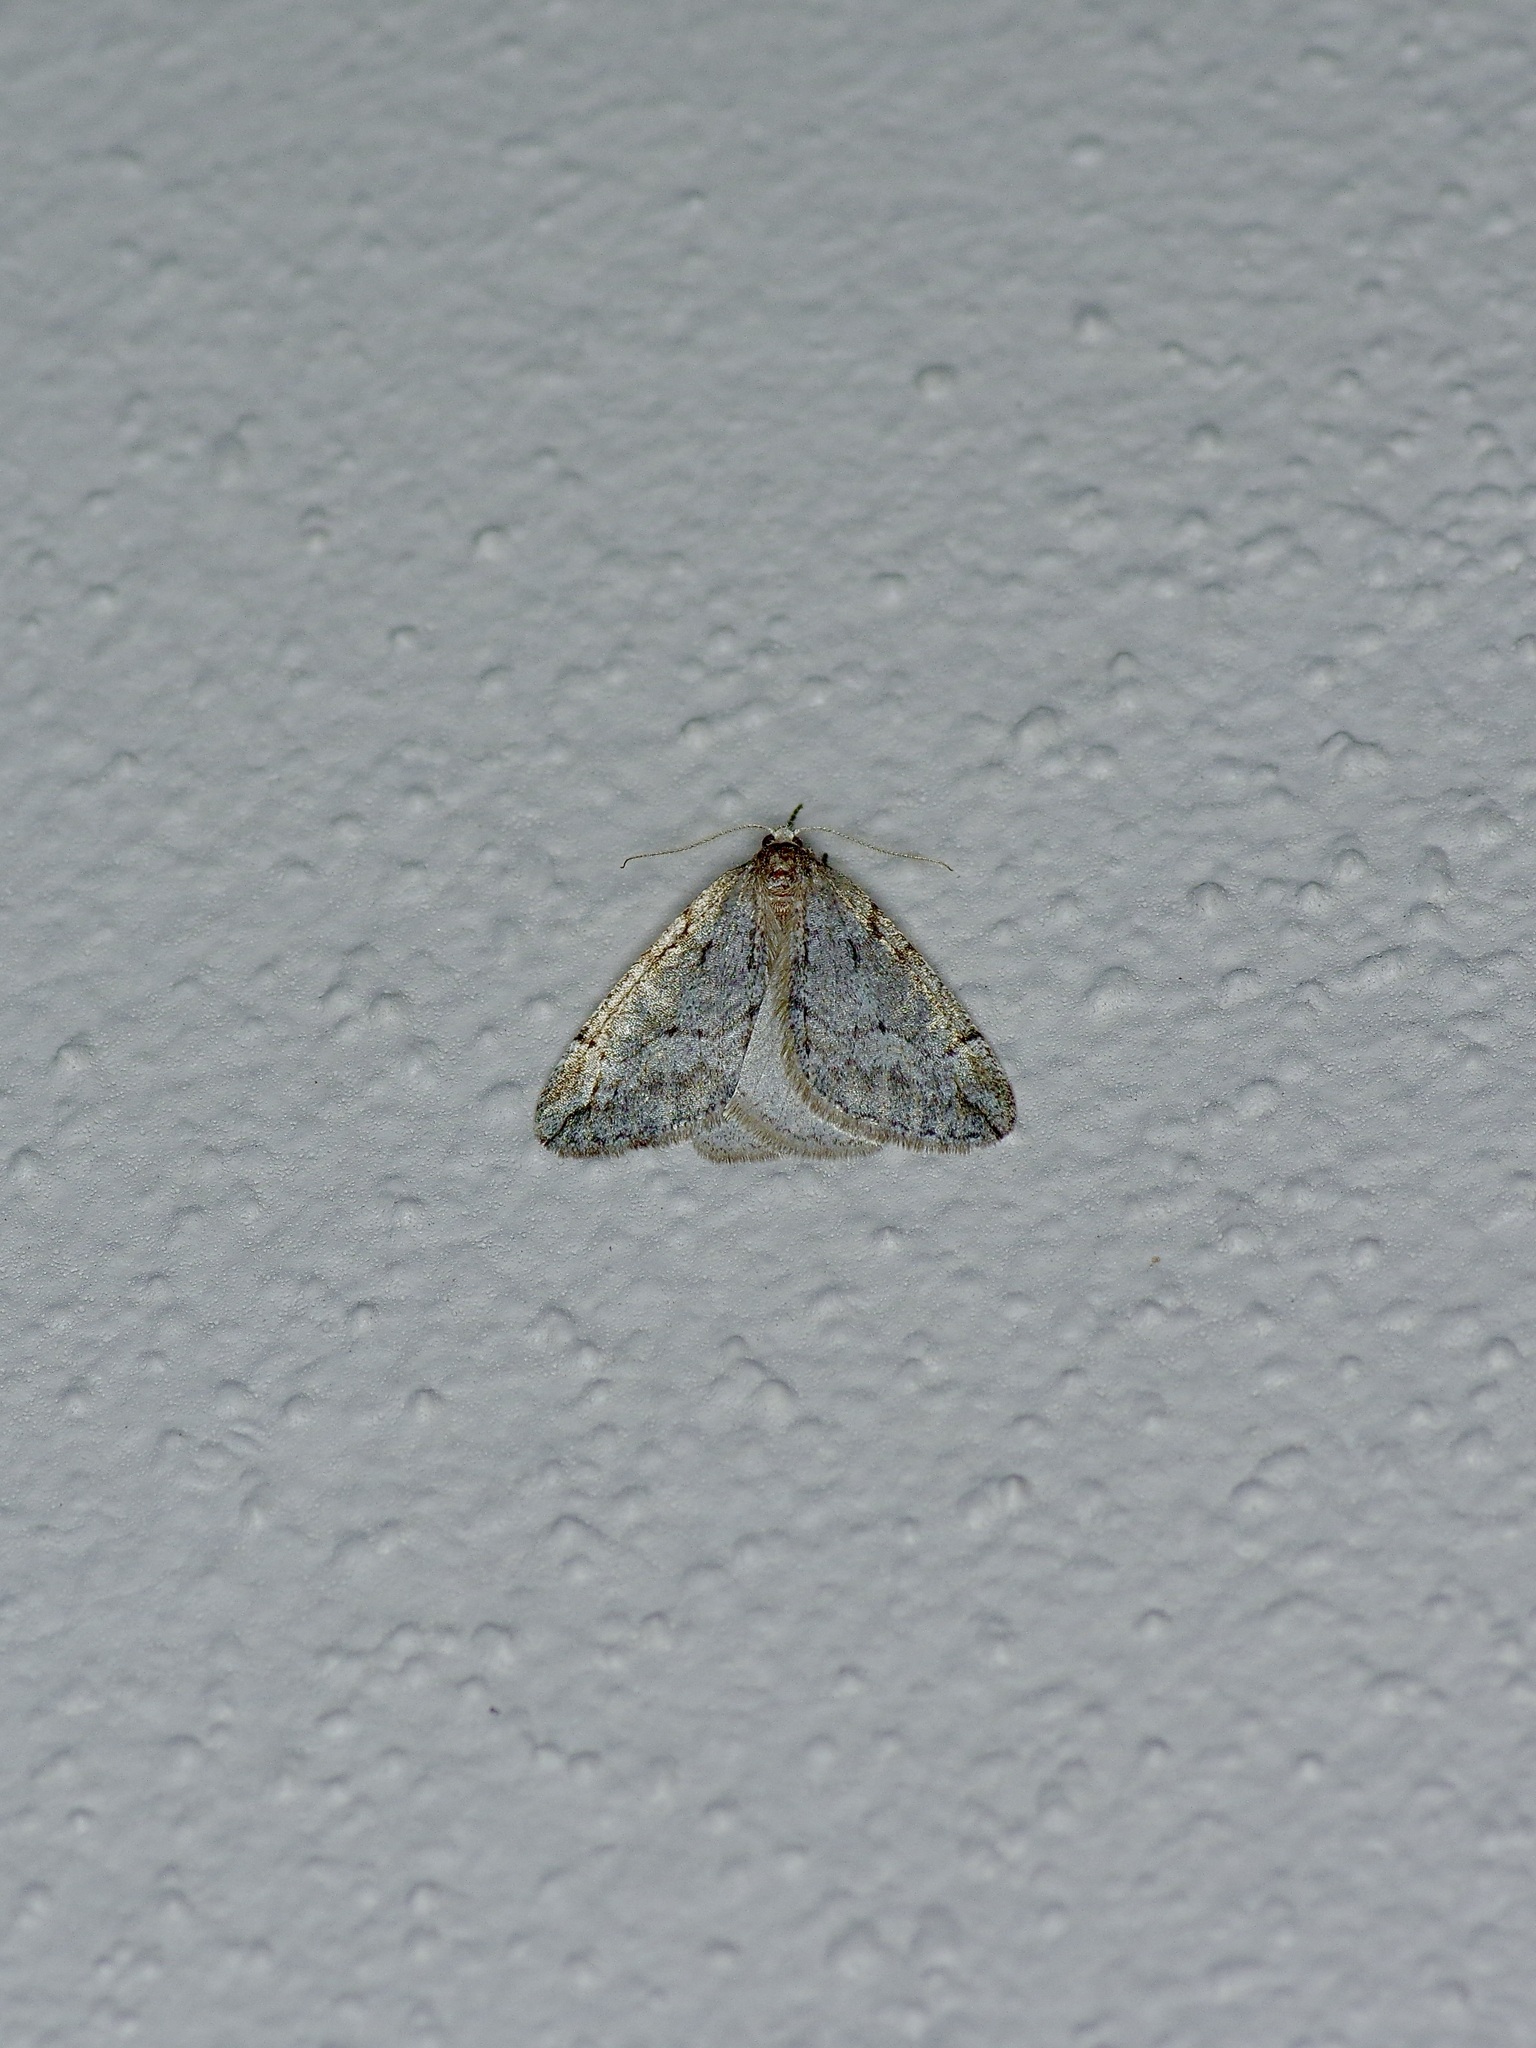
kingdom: Animalia
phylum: Arthropoda
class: Insecta
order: Lepidoptera
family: Geometridae
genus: Paleacrita
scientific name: Paleacrita vernata
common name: Spring cankerworm
